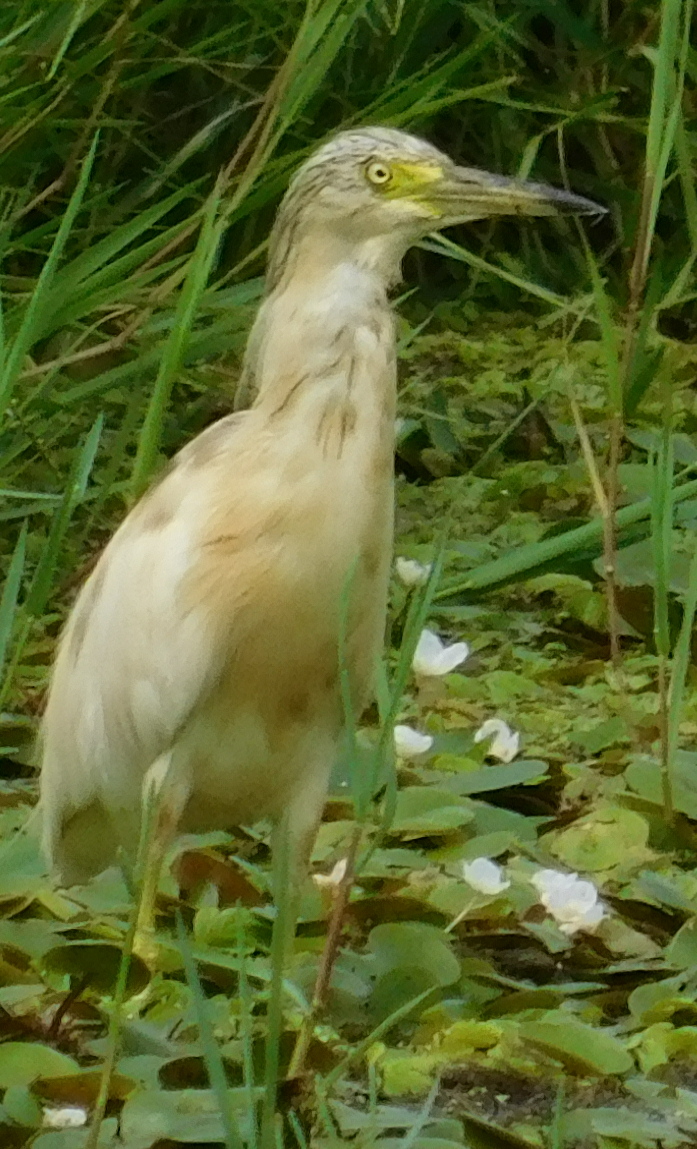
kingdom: Animalia
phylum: Chordata
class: Aves
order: Pelecaniformes
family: Ardeidae
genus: Ardeola
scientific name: Ardeola ralloides
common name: Squacco heron
